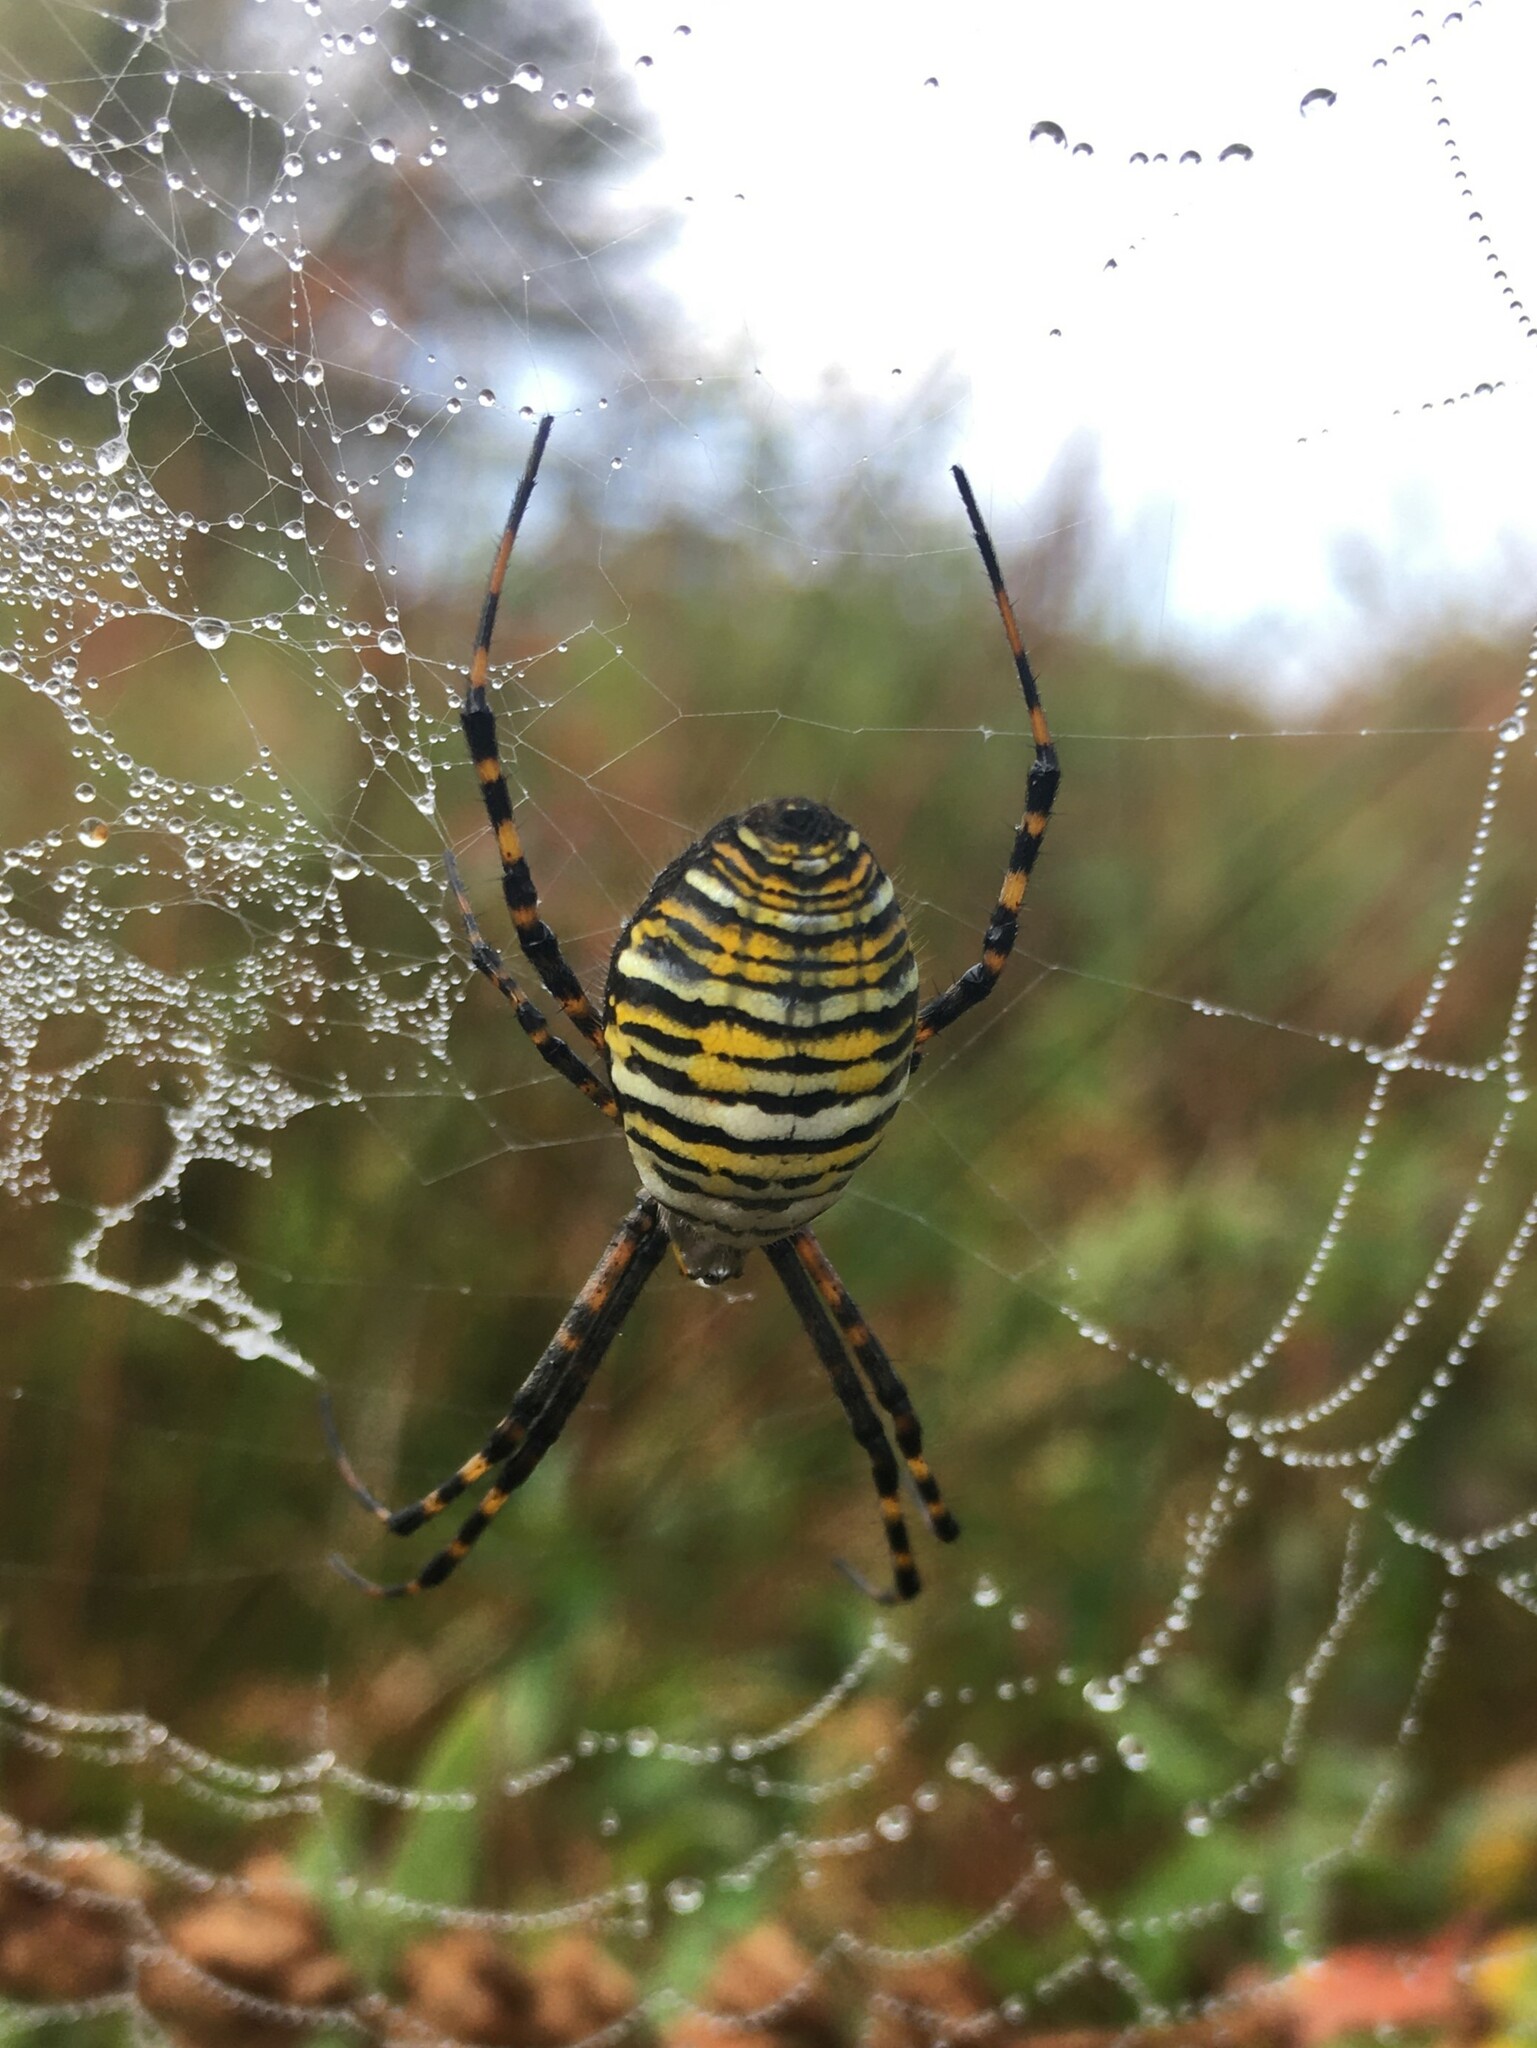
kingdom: Animalia
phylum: Arthropoda
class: Arachnida
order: Araneae
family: Araneidae
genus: Argiope
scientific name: Argiope trifasciata
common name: Banded garden spider
